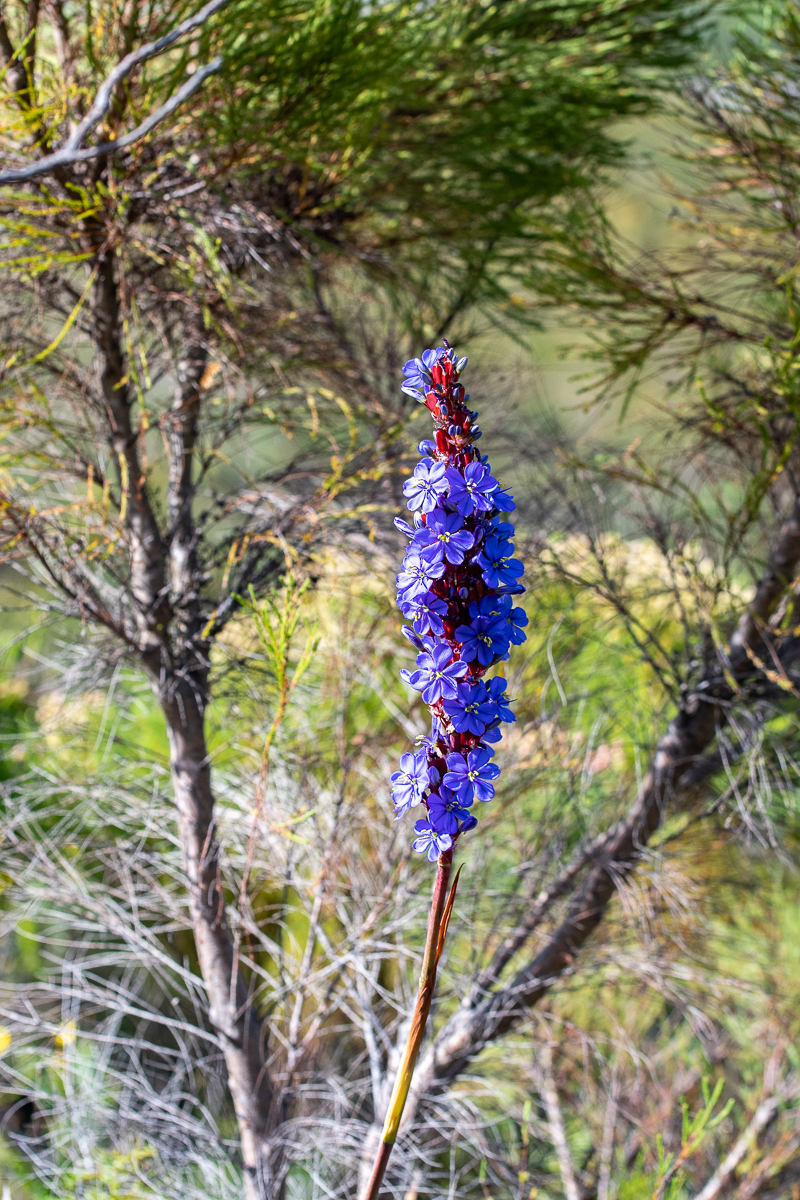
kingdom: Plantae
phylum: Tracheophyta
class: Liliopsida
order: Asparagales
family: Iridaceae
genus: Aristea
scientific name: Aristea capitata
